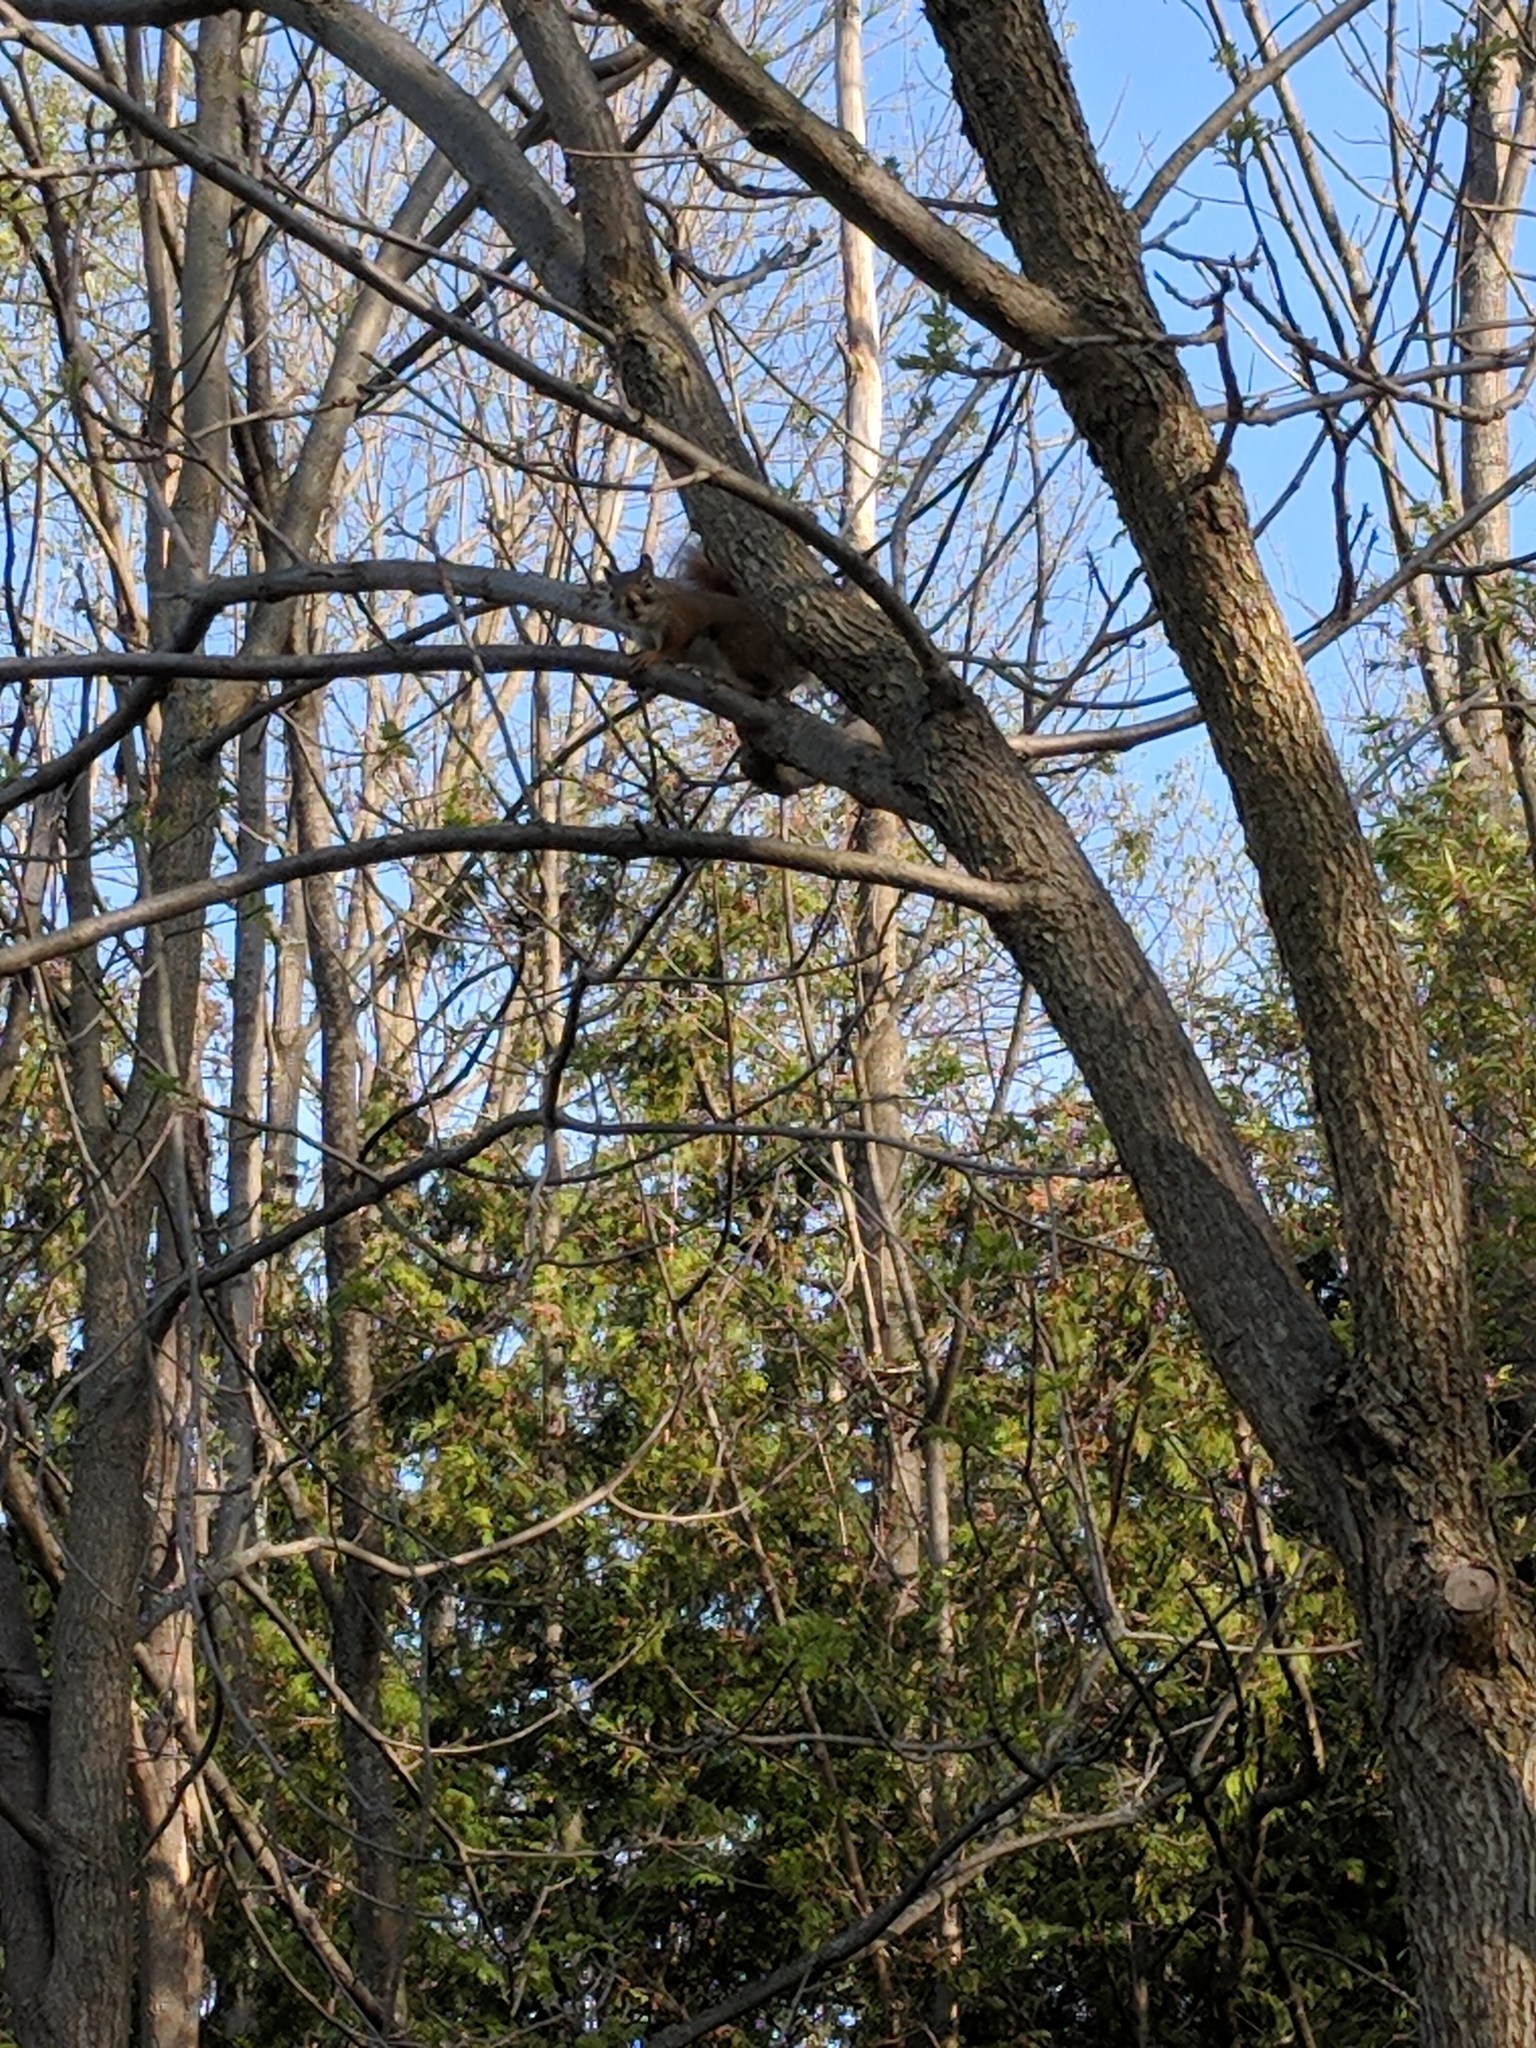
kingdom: Animalia
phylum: Chordata
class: Mammalia
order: Rodentia
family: Sciuridae
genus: Tamiasciurus
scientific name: Tamiasciurus hudsonicus
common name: Red squirrel
